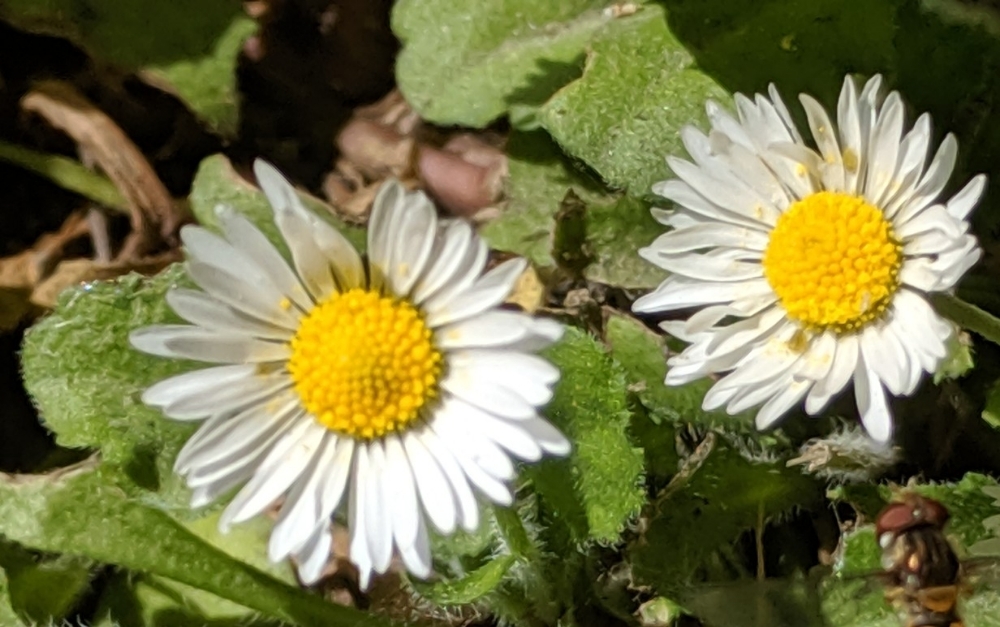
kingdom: Plantae
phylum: Tracheophyta
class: Magnoliopsida
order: Asterales
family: Asteraceae
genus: Bellis
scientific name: Bellis perennis
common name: Lawndaisy
